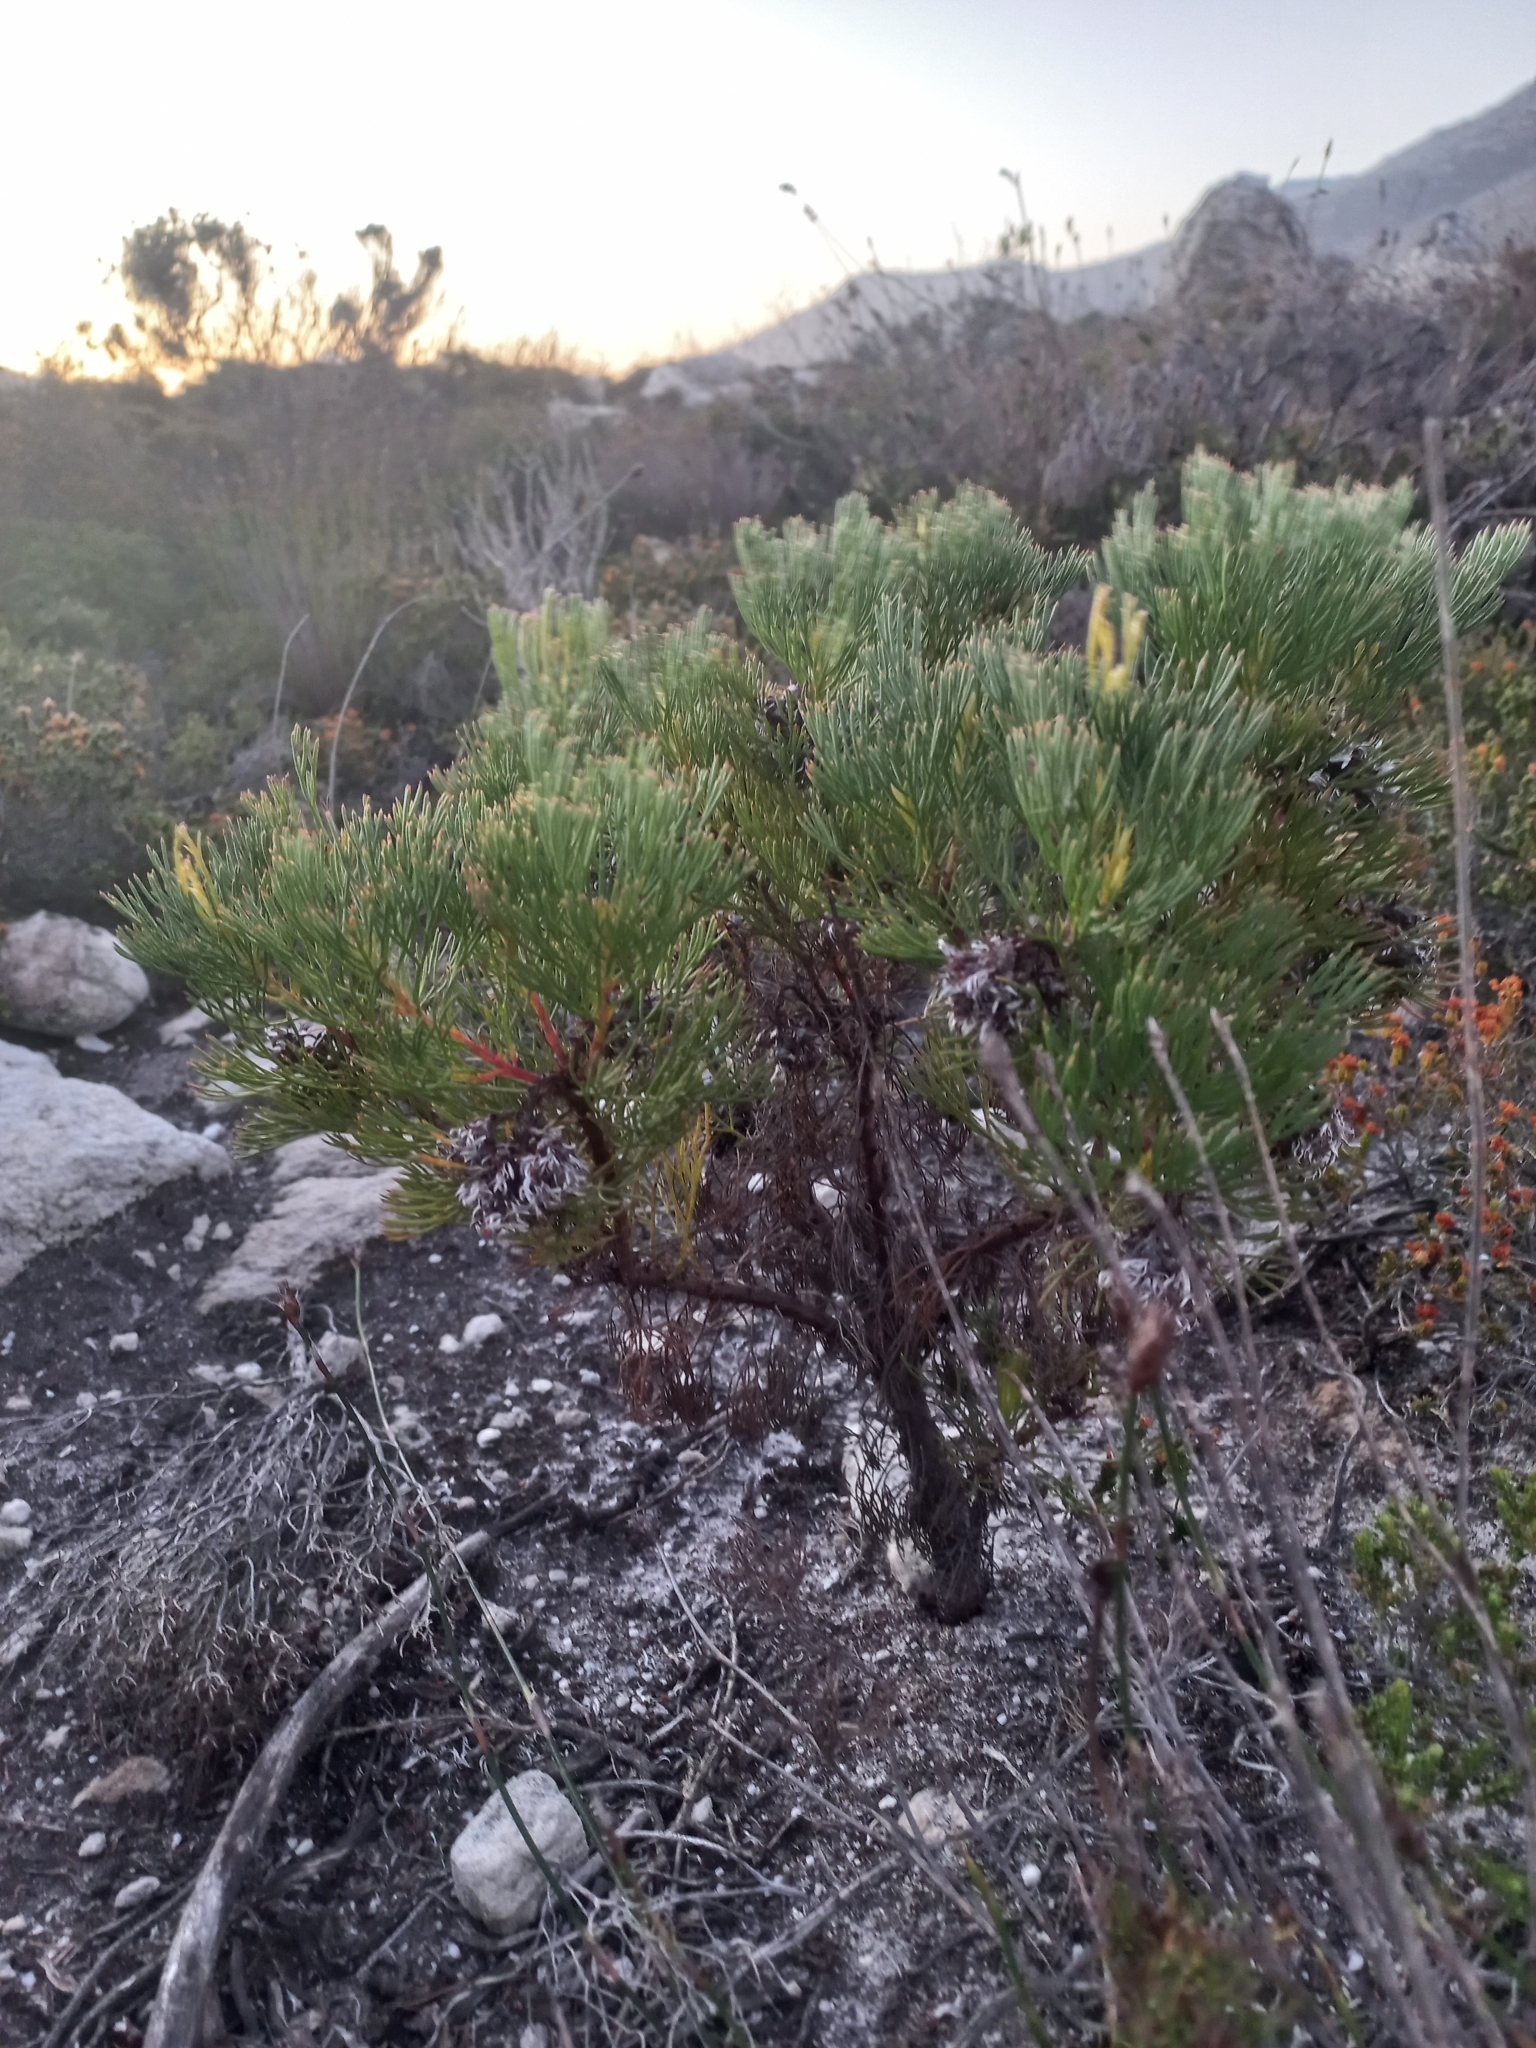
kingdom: Plantae
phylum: Tracheophyta
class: Magnoliopsida
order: Proteales
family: Proteaceae
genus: Serruria
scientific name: Serruria ascendens
